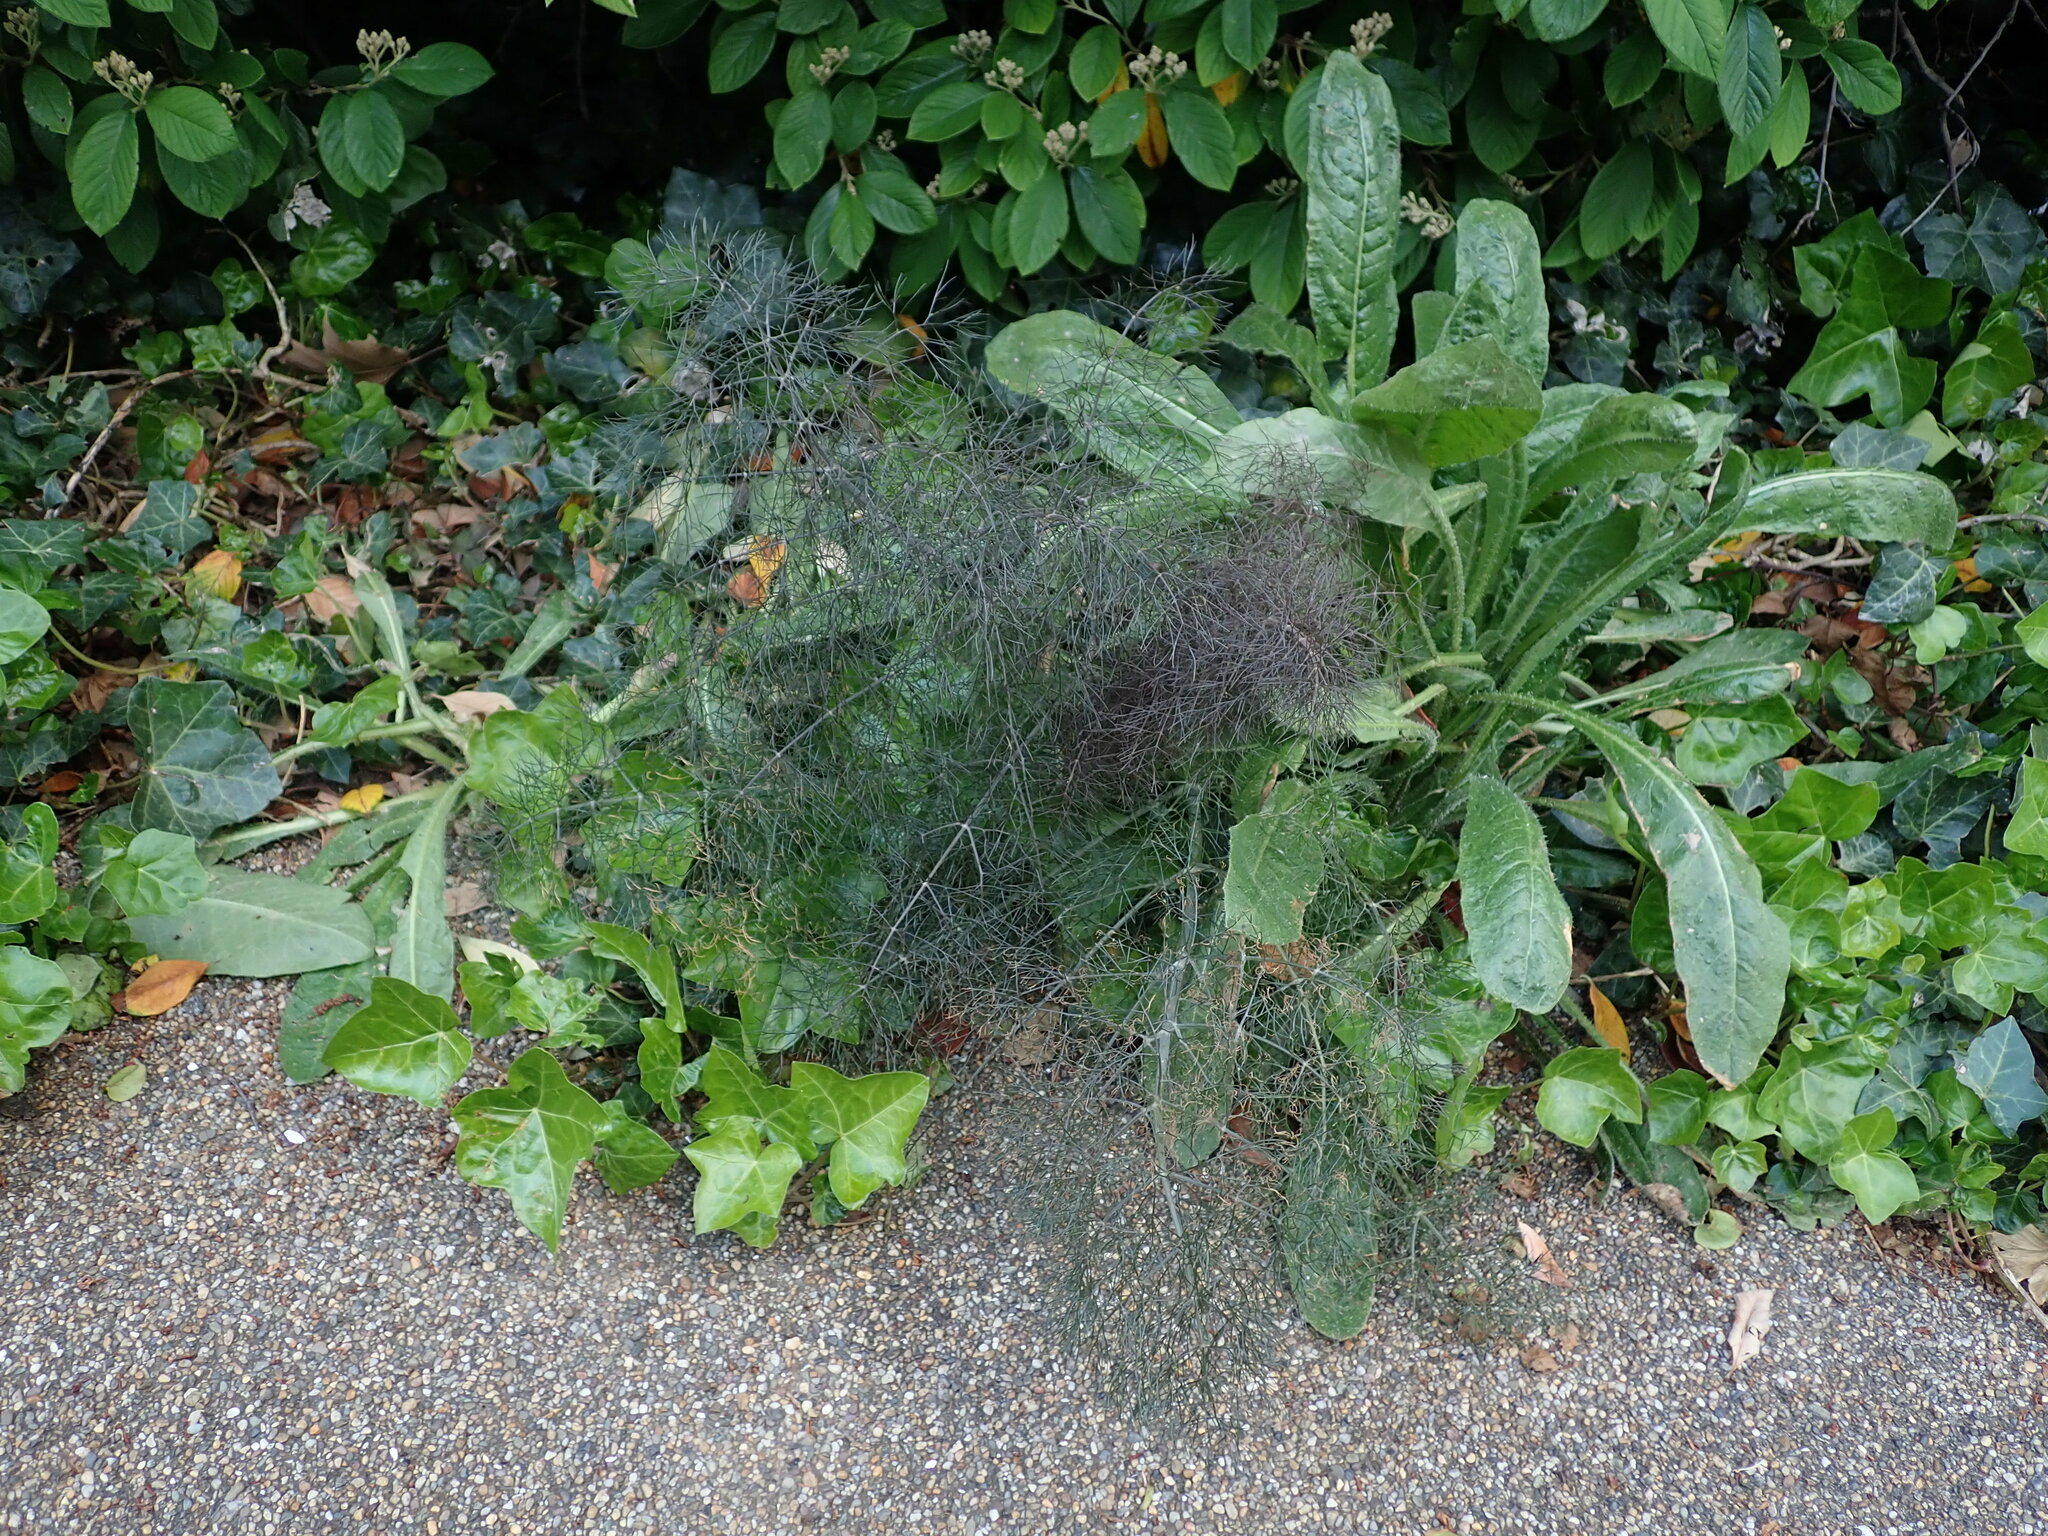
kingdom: Plantae
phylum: Tracheophyta
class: Magnoliopsida
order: Apiales
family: Apiaceae
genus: Foeniculum
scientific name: Foeniculum vulgare
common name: Fennel
